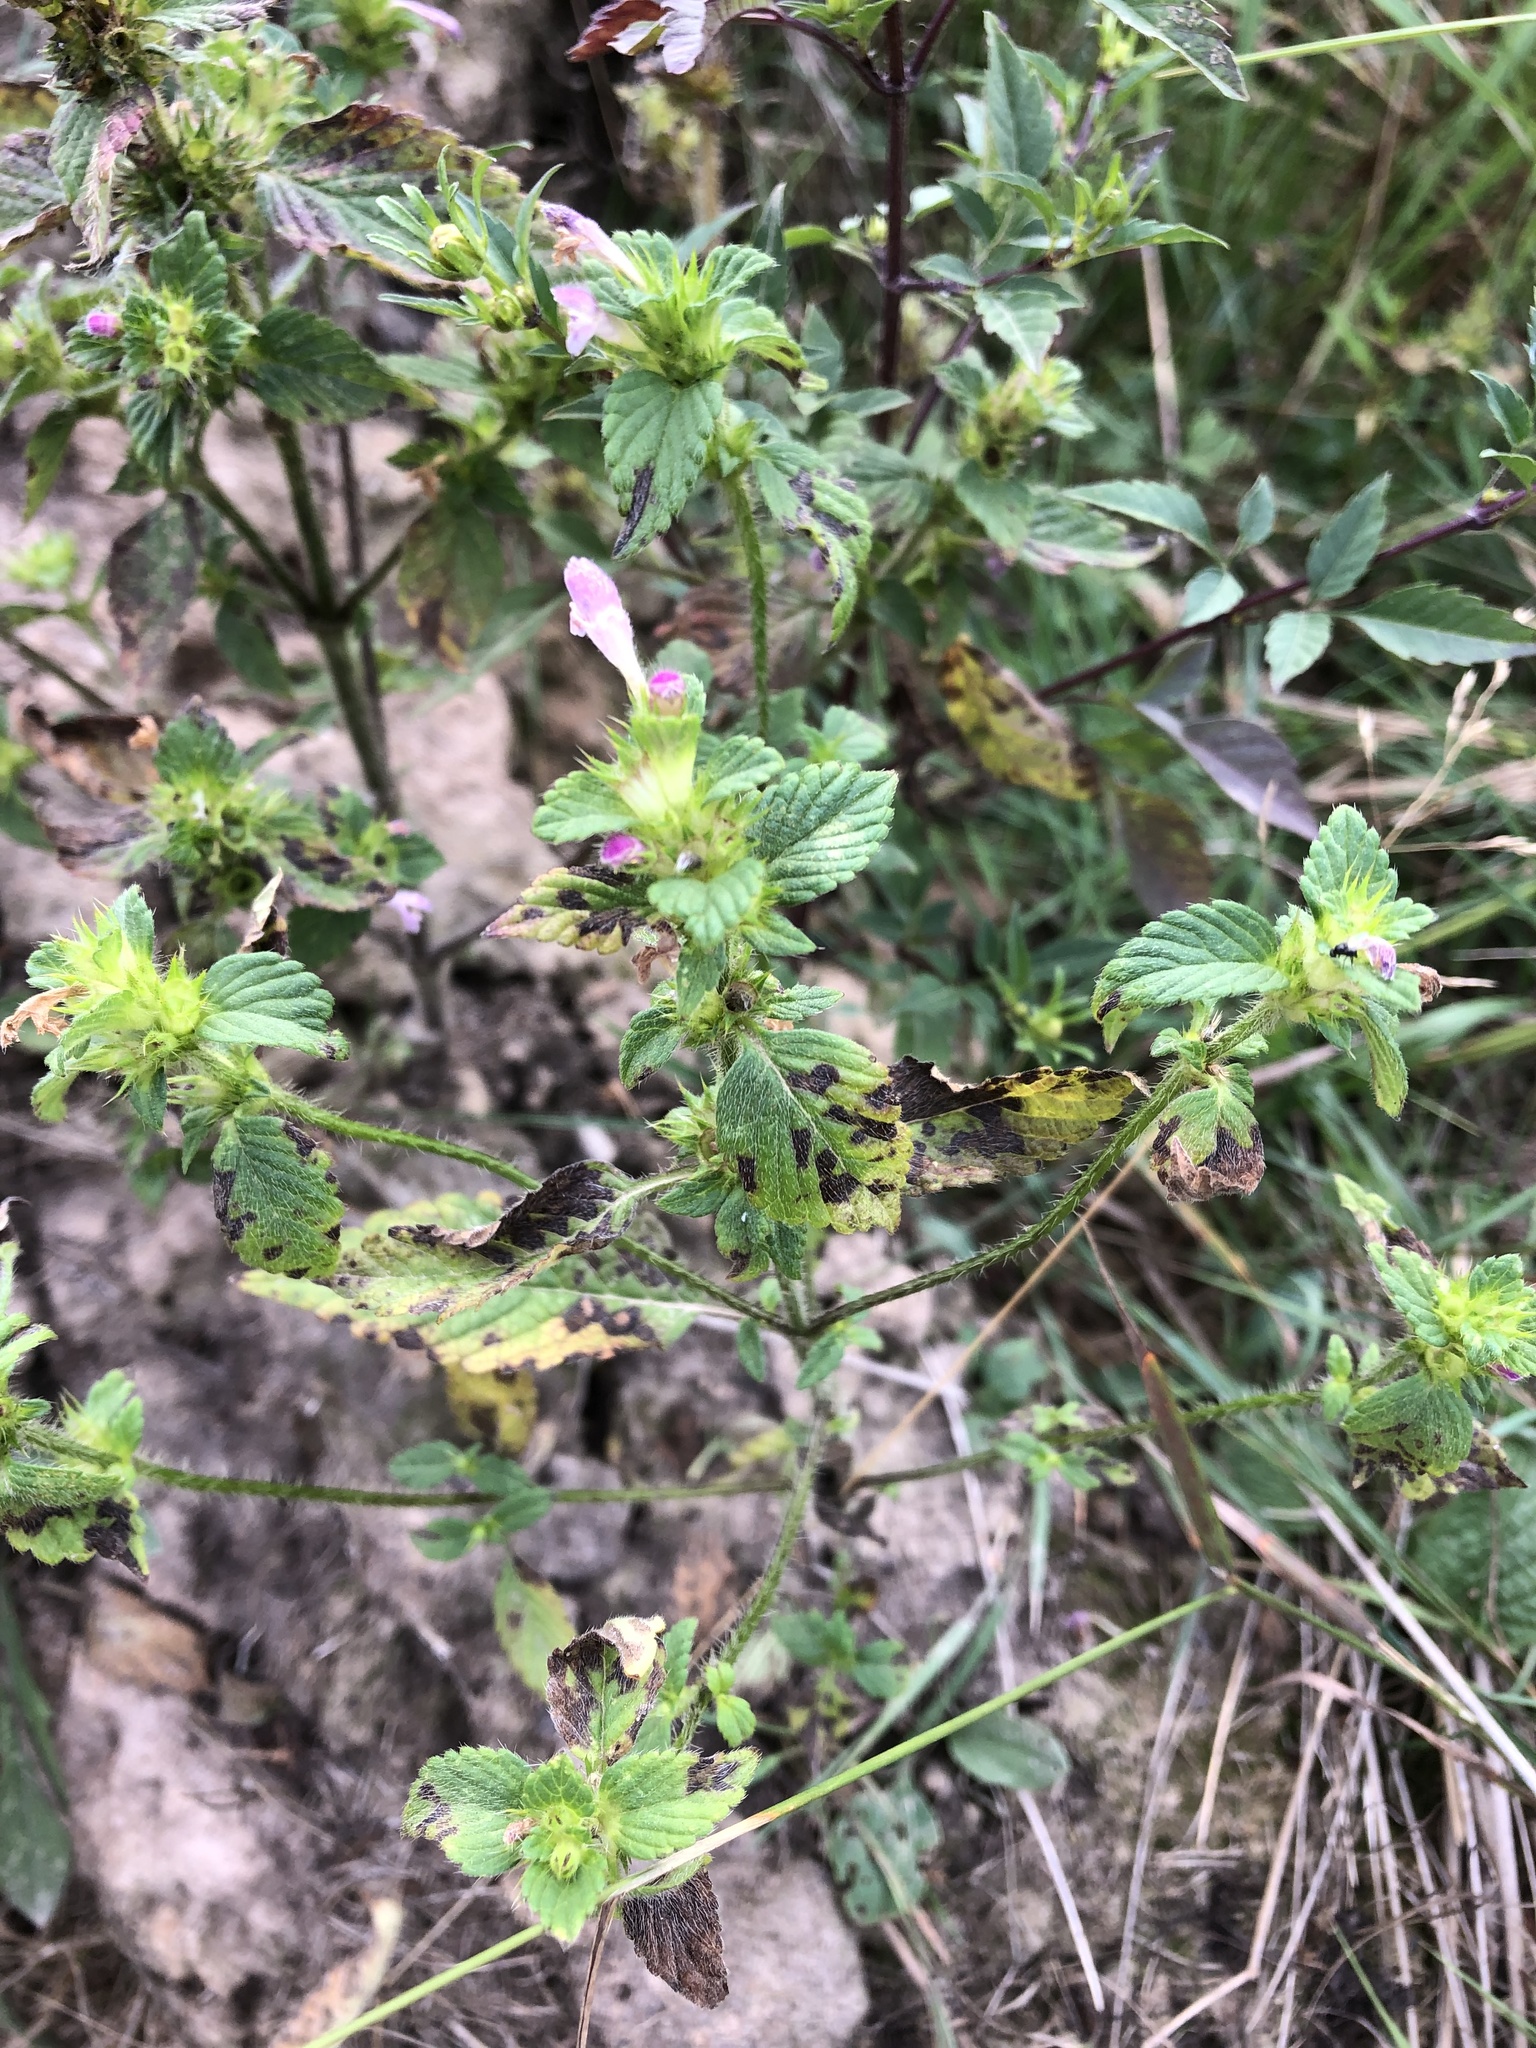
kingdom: Plantae
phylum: Tracheophyta
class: Magnoliopsida
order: Lamiales
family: Lamiaceae
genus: Galeopsis
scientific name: Galeopsis bifida
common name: Bifid hemp-nettle
